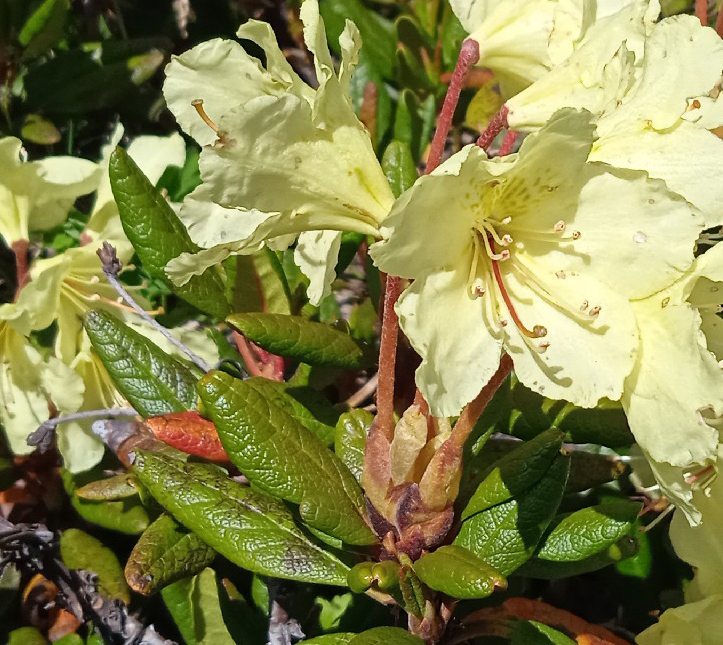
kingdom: Plantae
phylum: Tracheophyta
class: Magnoliopsida
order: Ericales
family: Ericaceae
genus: Rhododendron
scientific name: Rhododendron aureum
